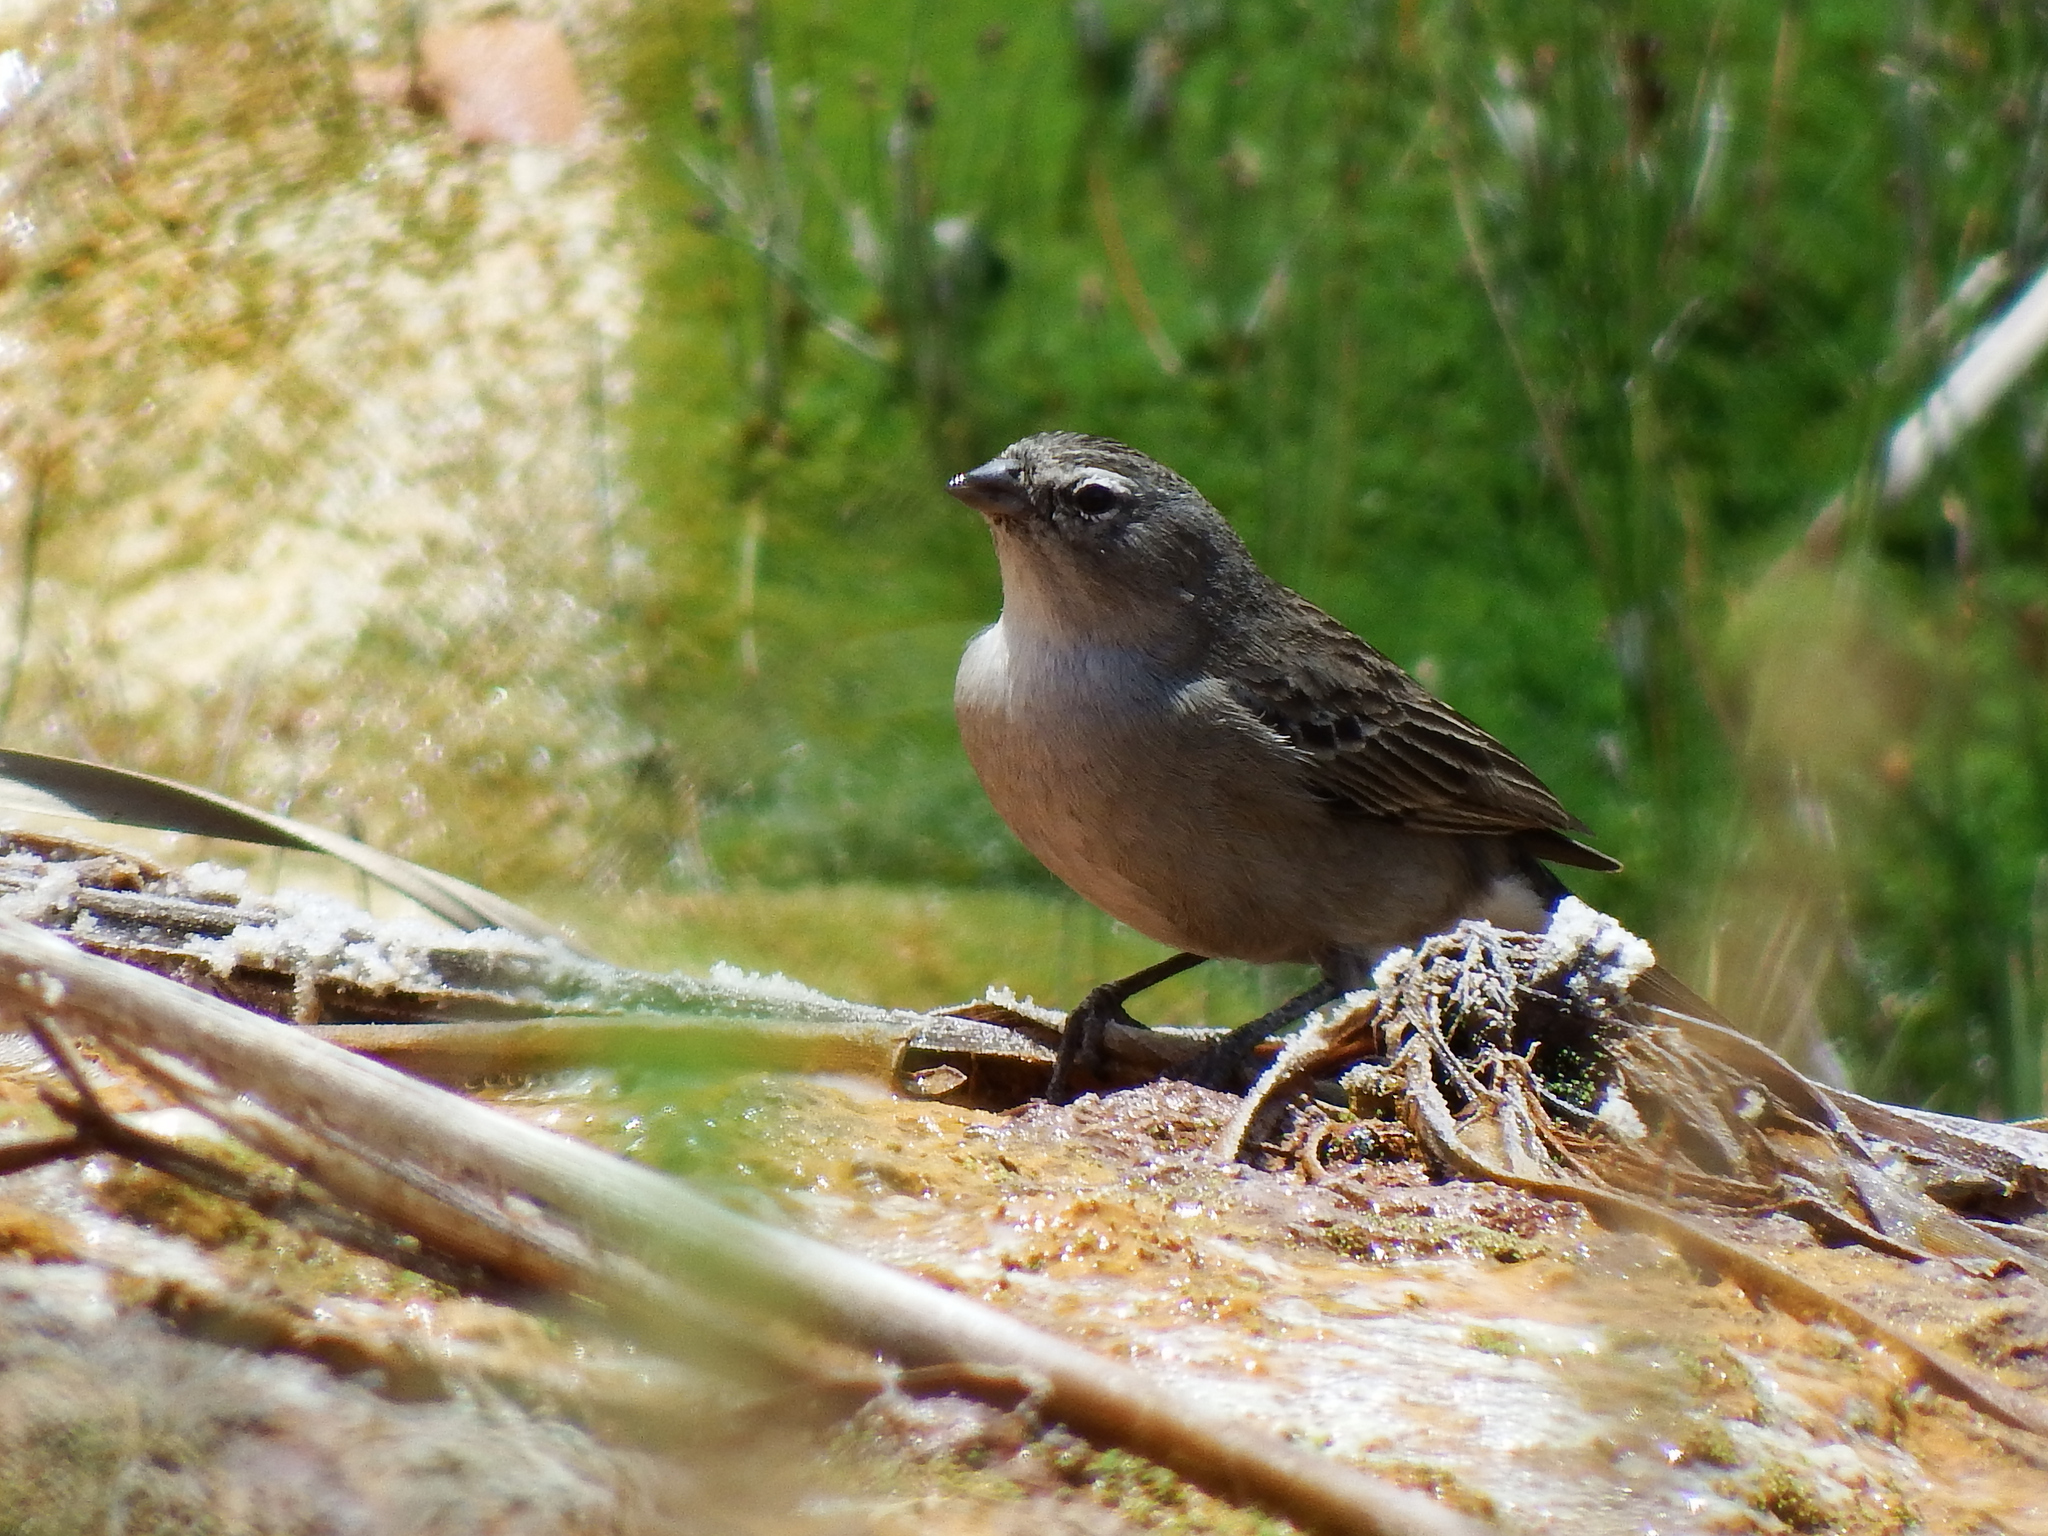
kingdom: Animalia
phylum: Chordata
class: Aves
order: Passeriformes
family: Thraupidae
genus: Geospizopsis
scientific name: Geospizopsis plebejus
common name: Ash-breasted sierra-finch
